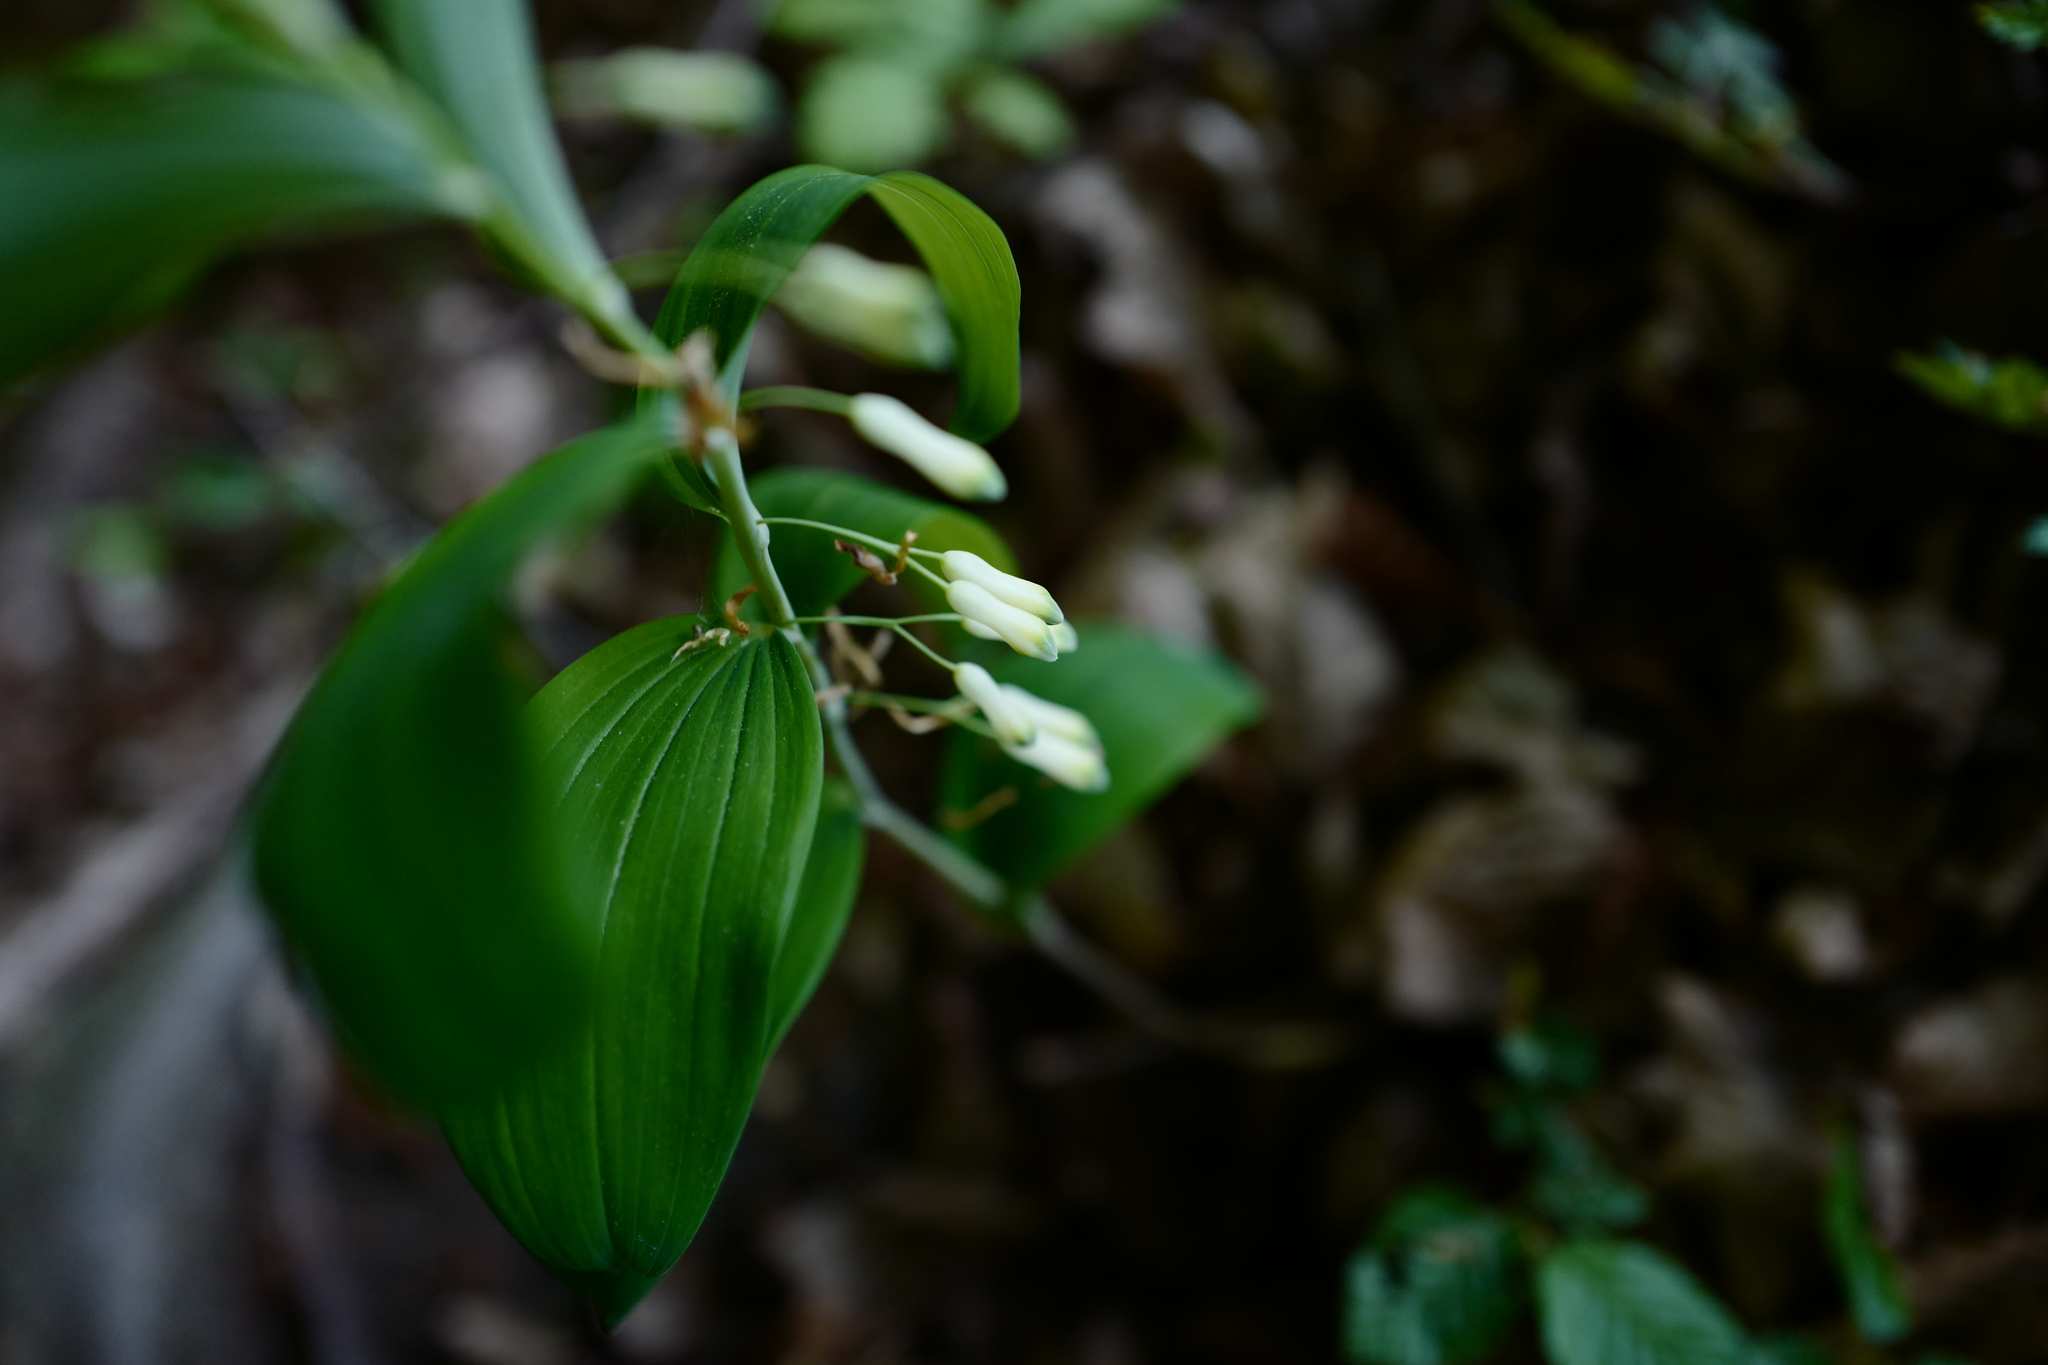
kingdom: Plantae
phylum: Tracheophyta
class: Liliopsida
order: Asparagales
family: Asparagaceae
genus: Polygonatum
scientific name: Polygonatum multiflorum
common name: Solomon's-seal
